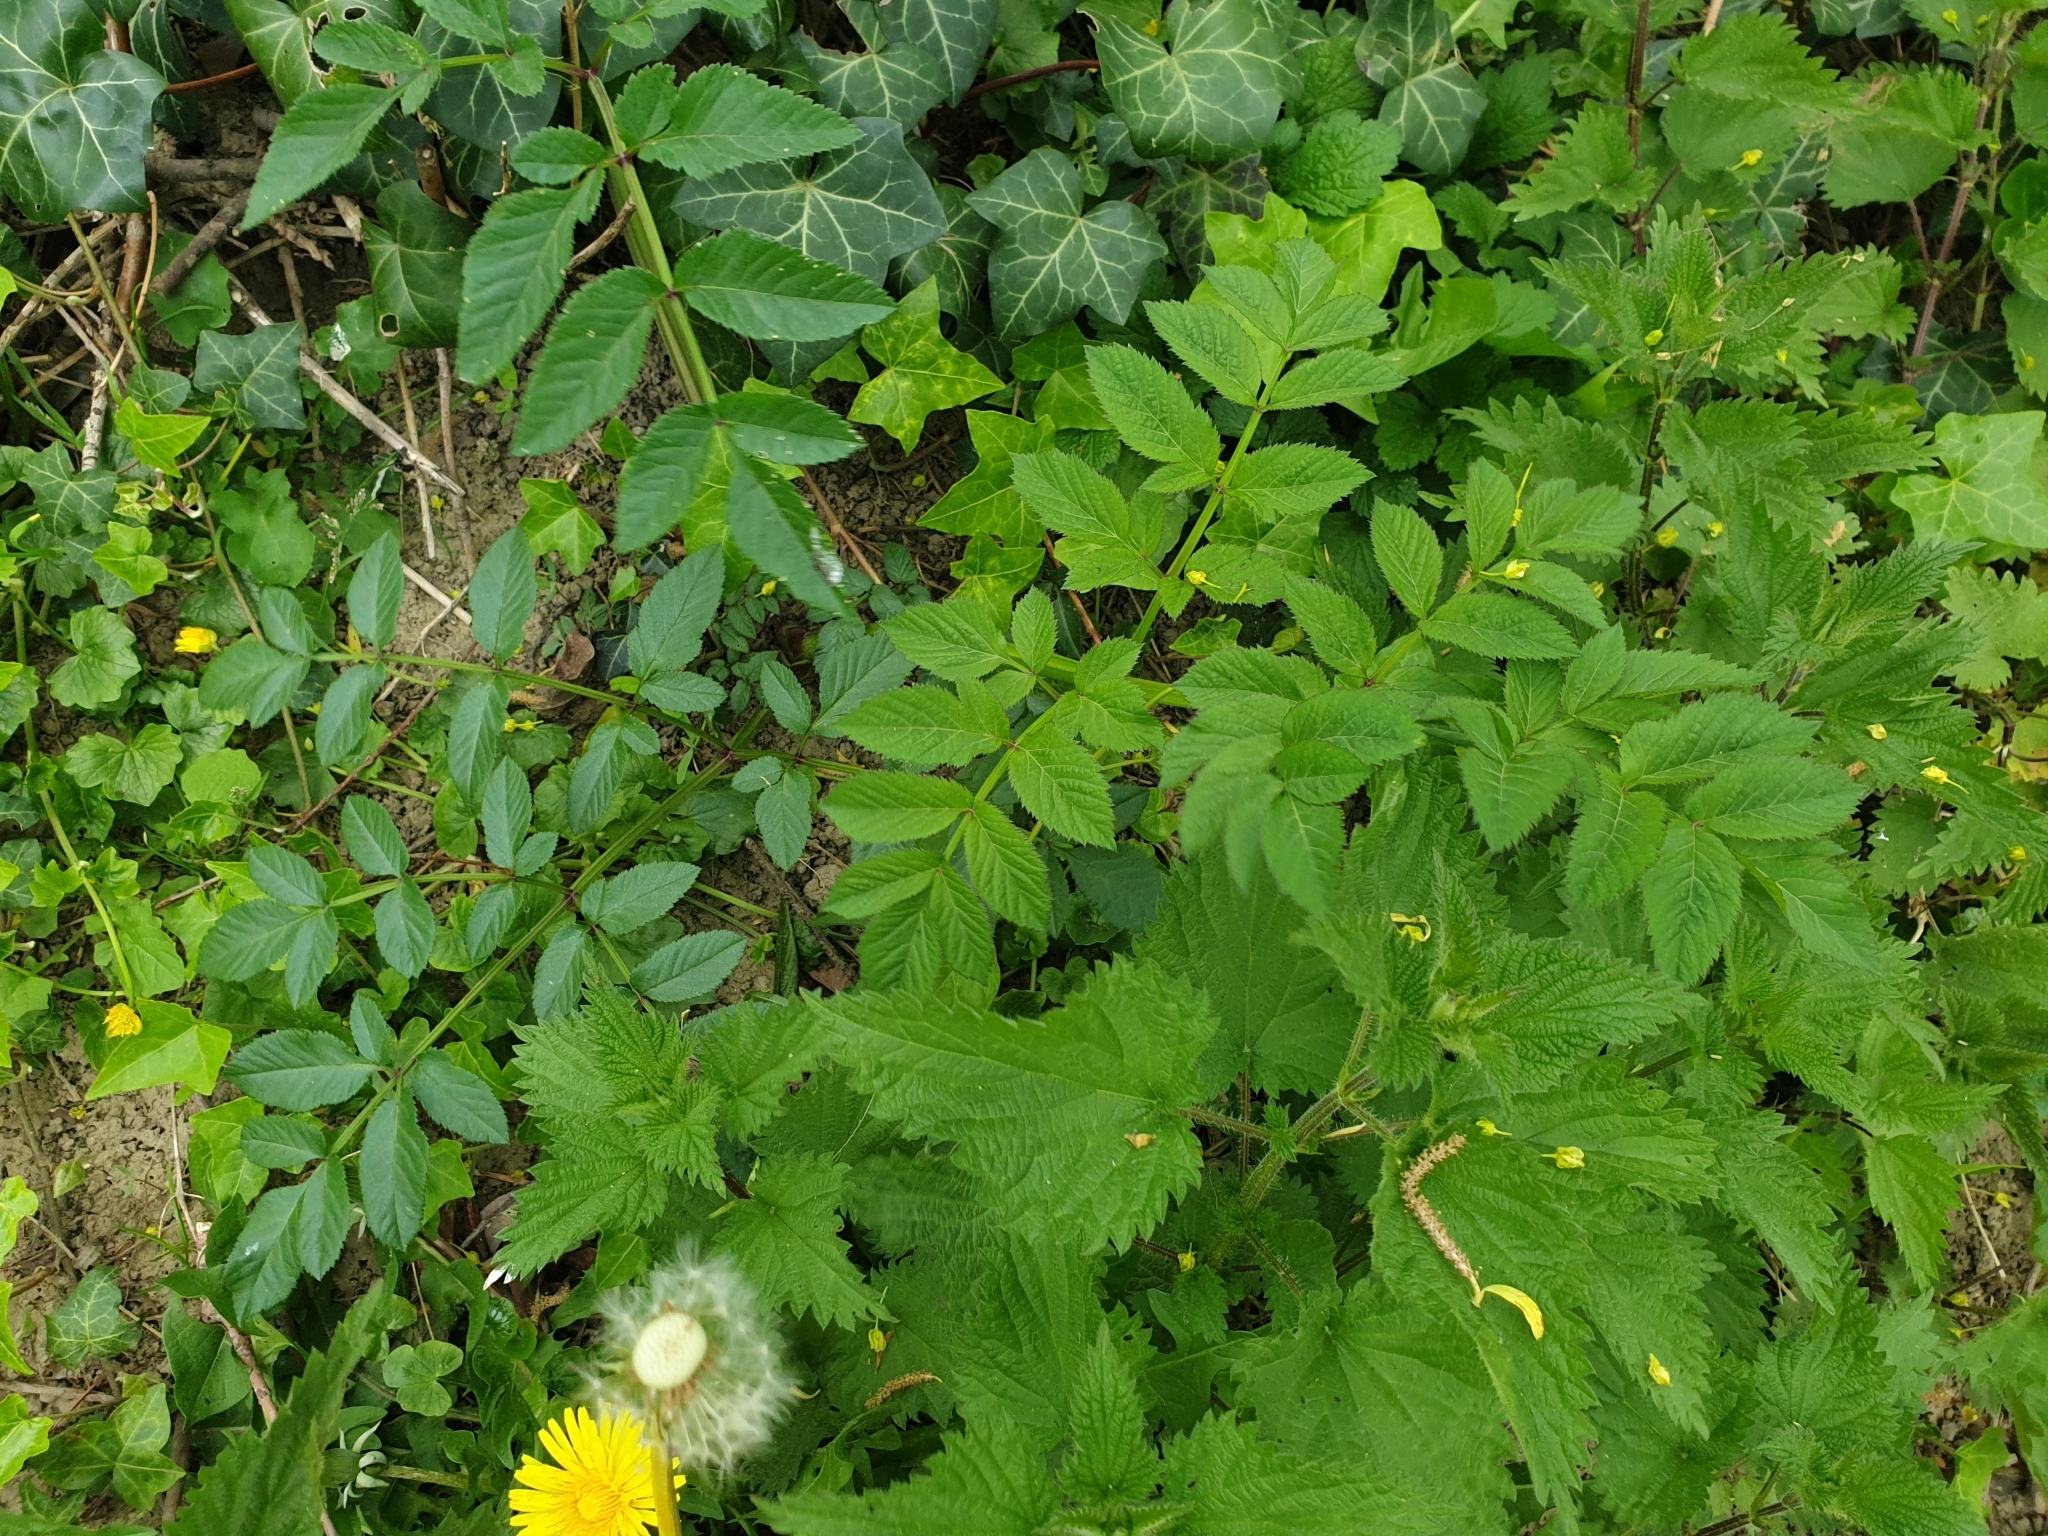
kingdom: Plantae
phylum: Tracheophyta
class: Magnoliopsida
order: Apiales
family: Apiaceae
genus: Angelica
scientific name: Angelica sylvestris
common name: Wild angelica
